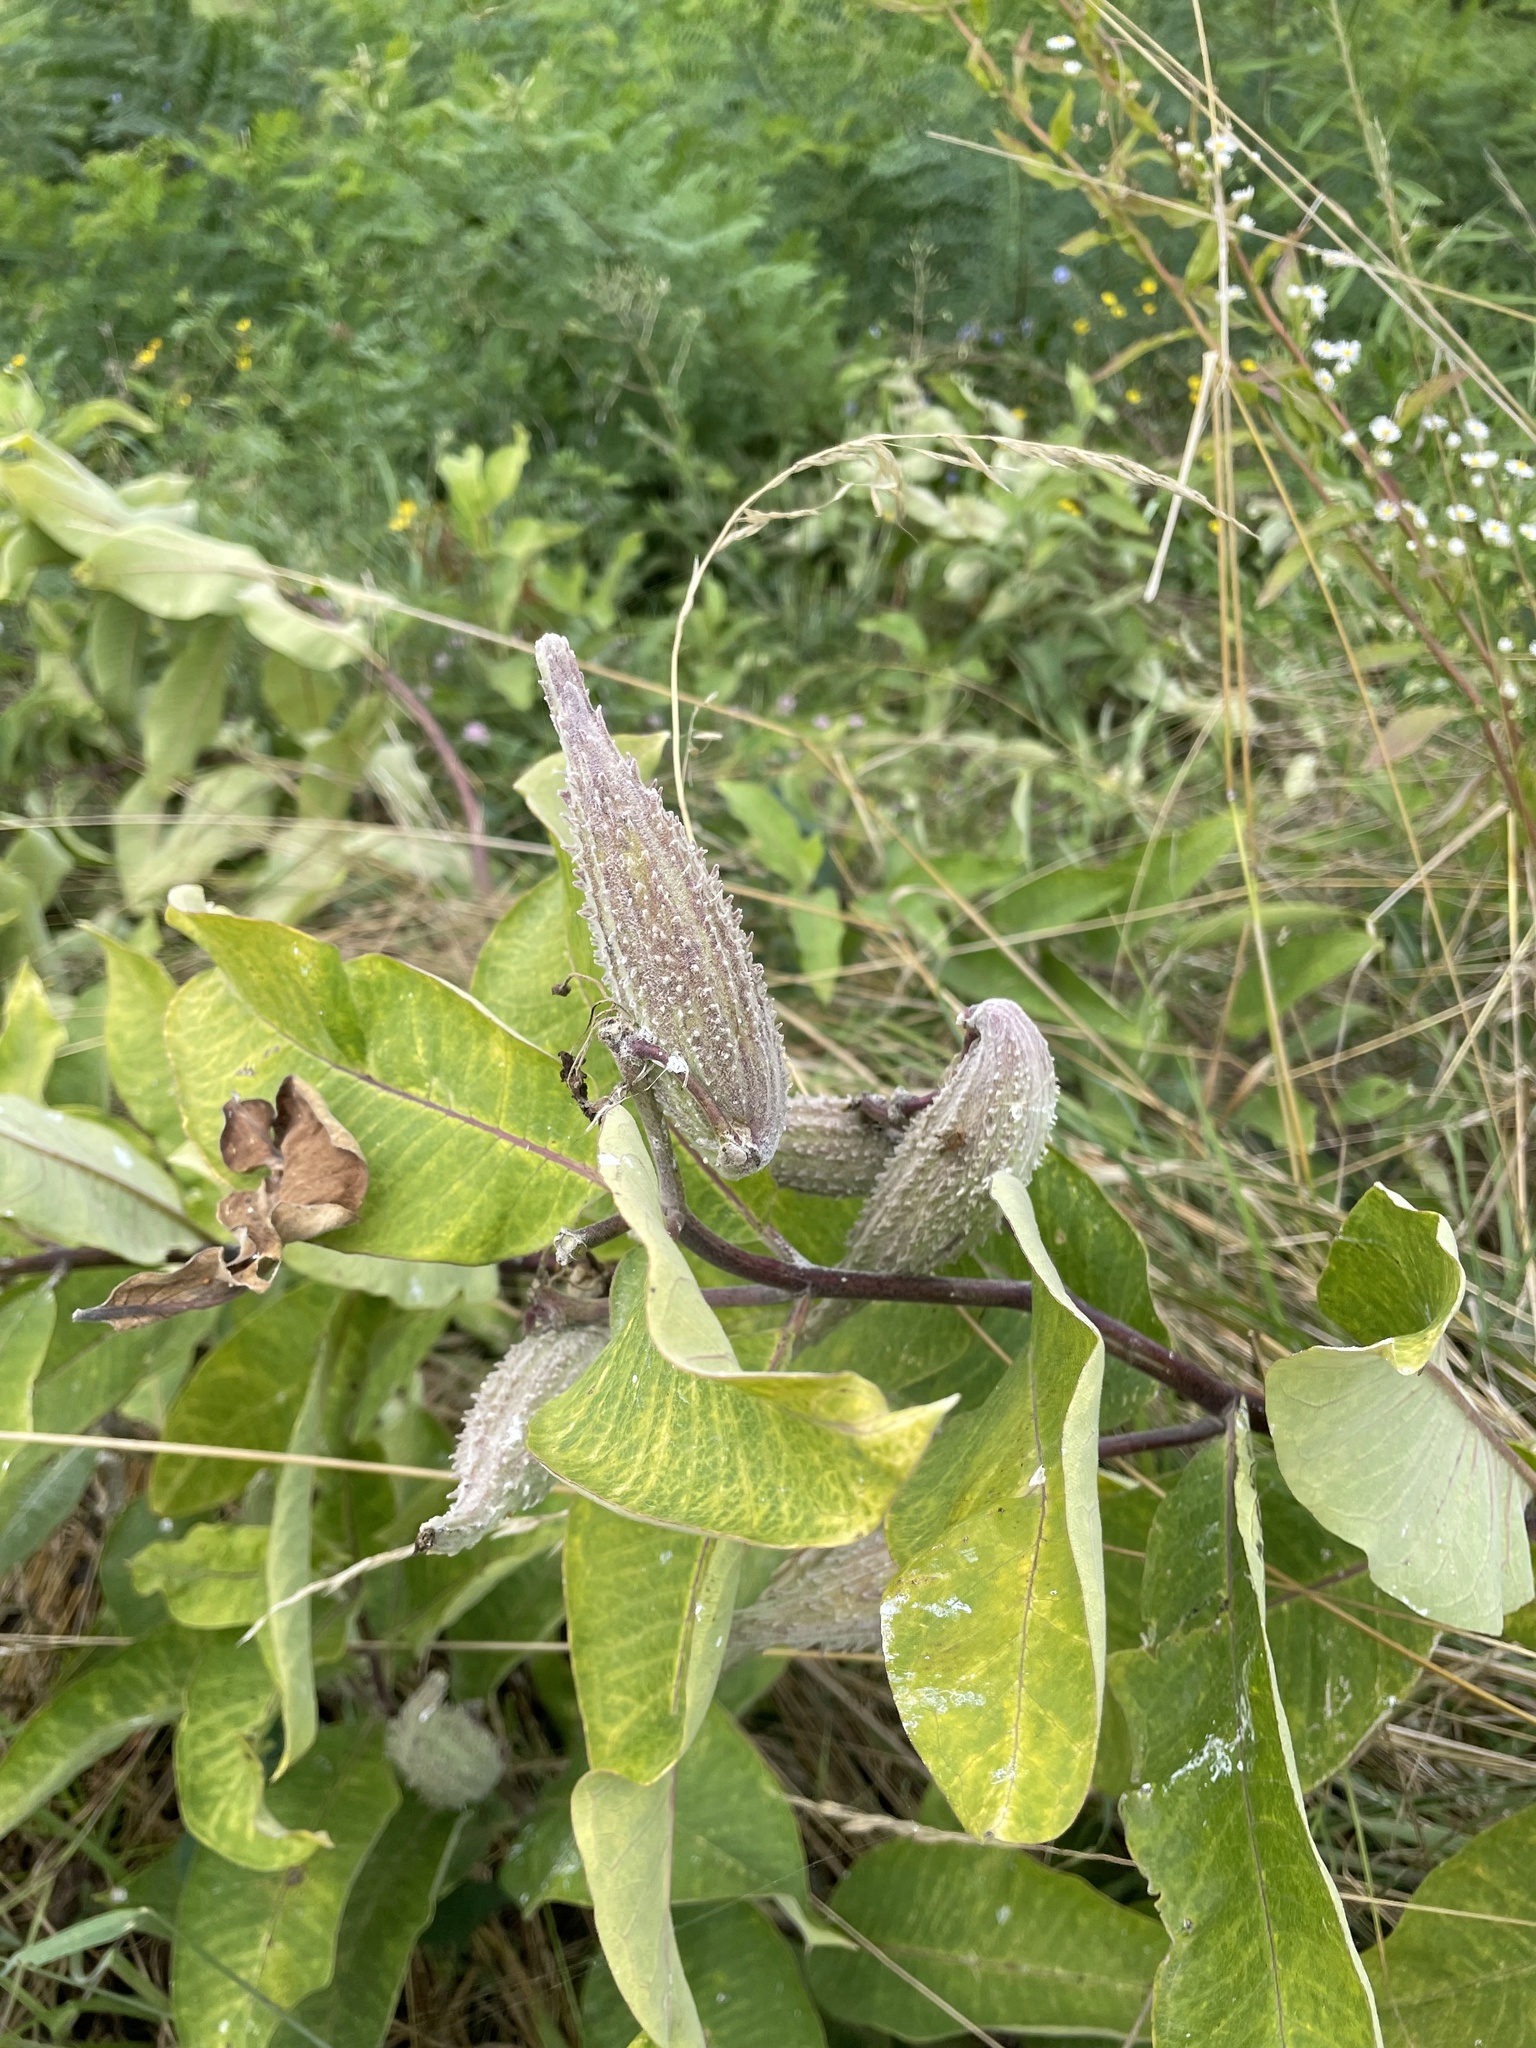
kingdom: Plantae
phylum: Tracheophyta
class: Magnoliopsida
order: Gentianales
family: Apocynaceae
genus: Asclepias
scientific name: Asclepias syriaca
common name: Common milkweed
